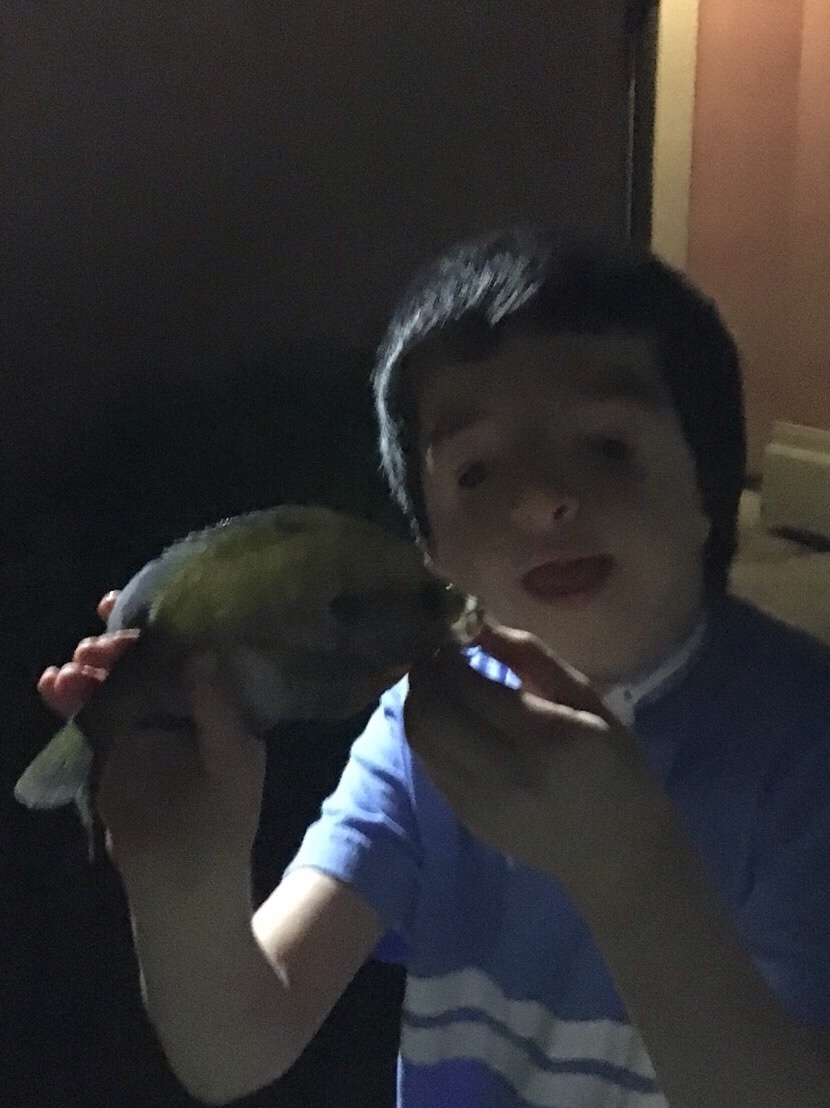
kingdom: Animalia
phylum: Chordata
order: Perciformes
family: Centrarchidae
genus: Lepomis
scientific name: Lepomis macrochirus
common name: Bluegill
